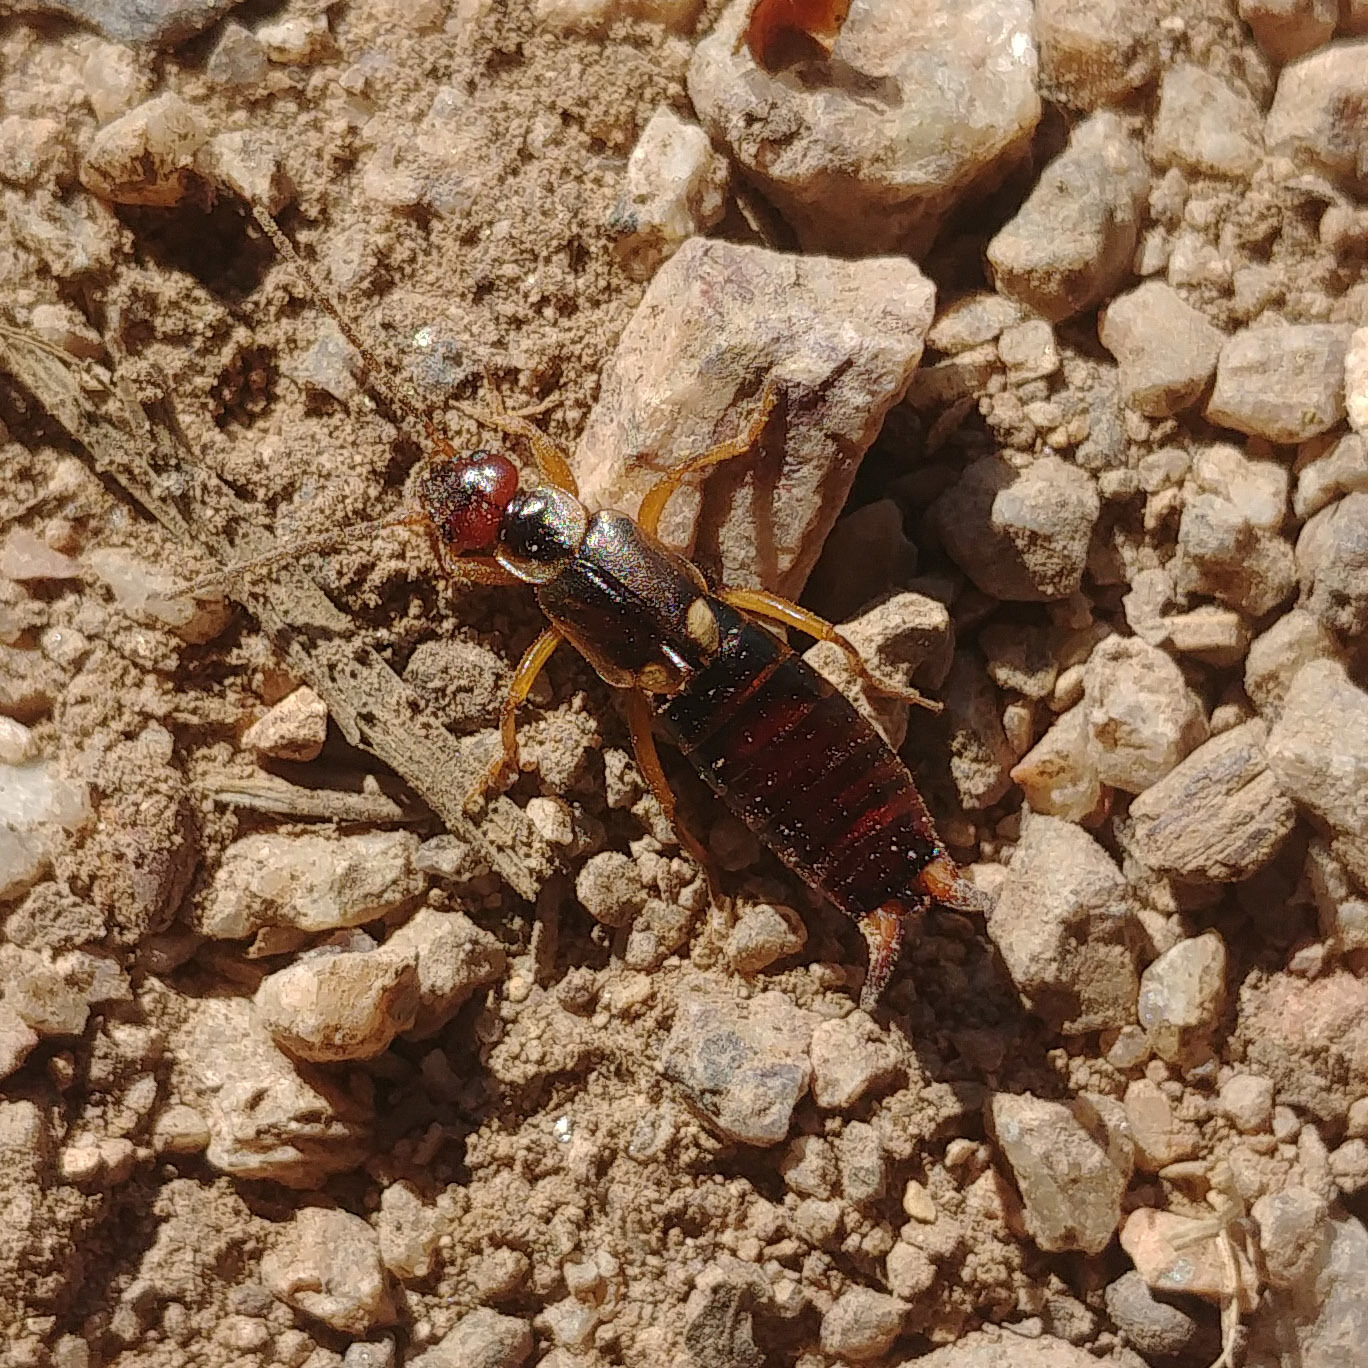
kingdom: Animalia
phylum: Arthropoda
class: Insecta
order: Dermaptera
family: Forficulidae
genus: Forficula
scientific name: Forficula
